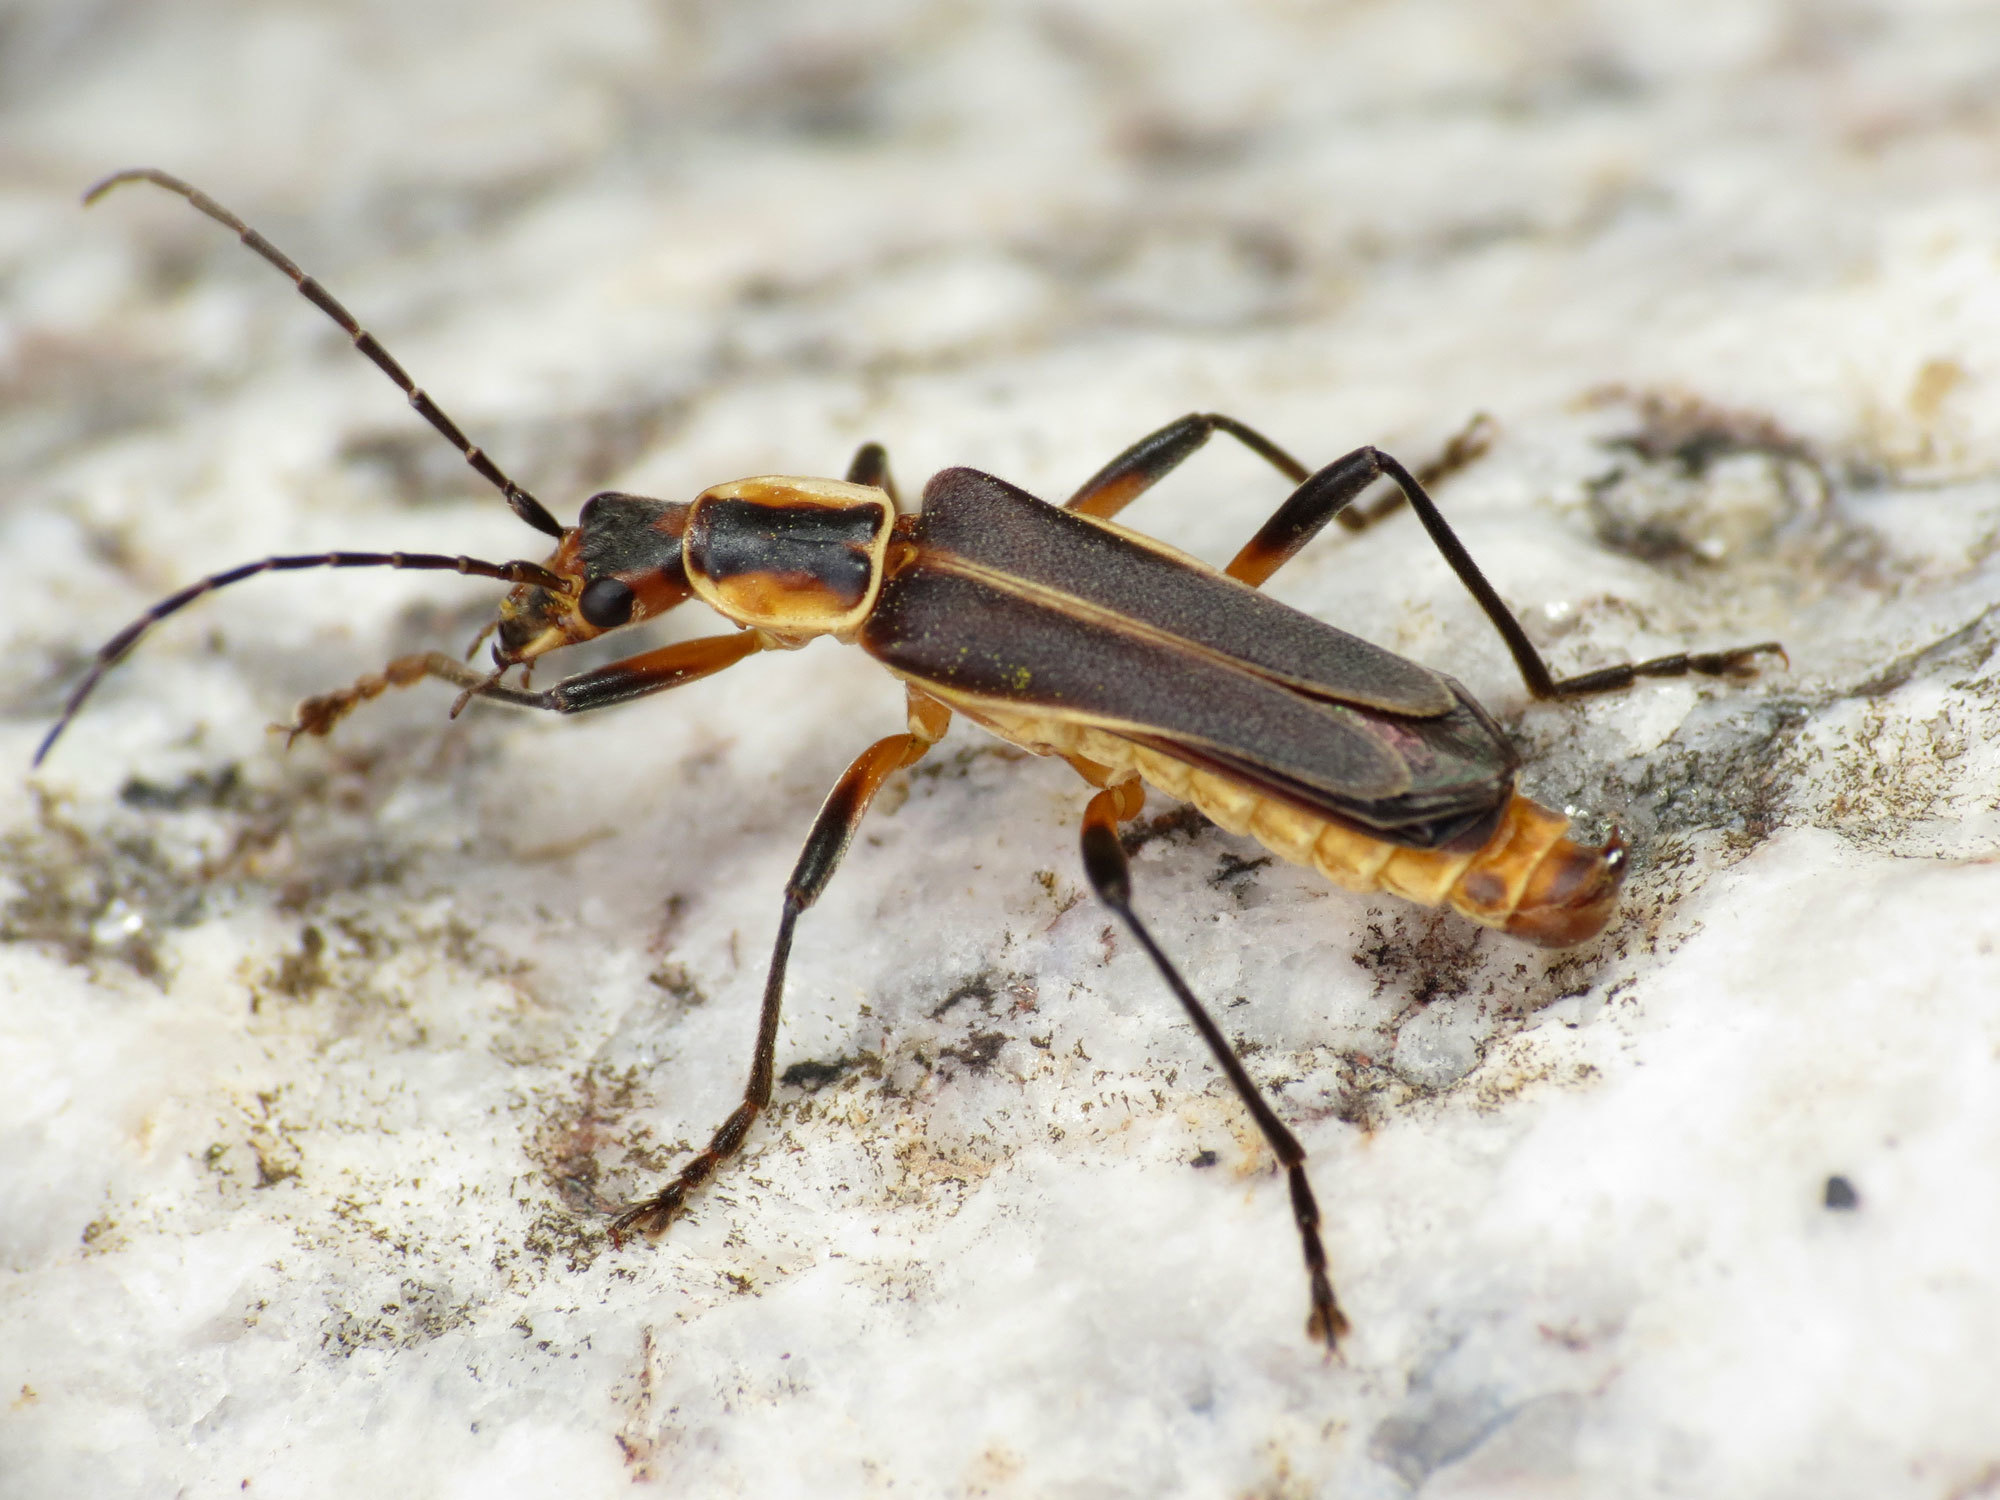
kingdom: Animalia
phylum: Arthropoda
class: Insecta
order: Coleoptera
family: Cantharidae
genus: Chauliognathus
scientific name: Chauliognathus obscurus
